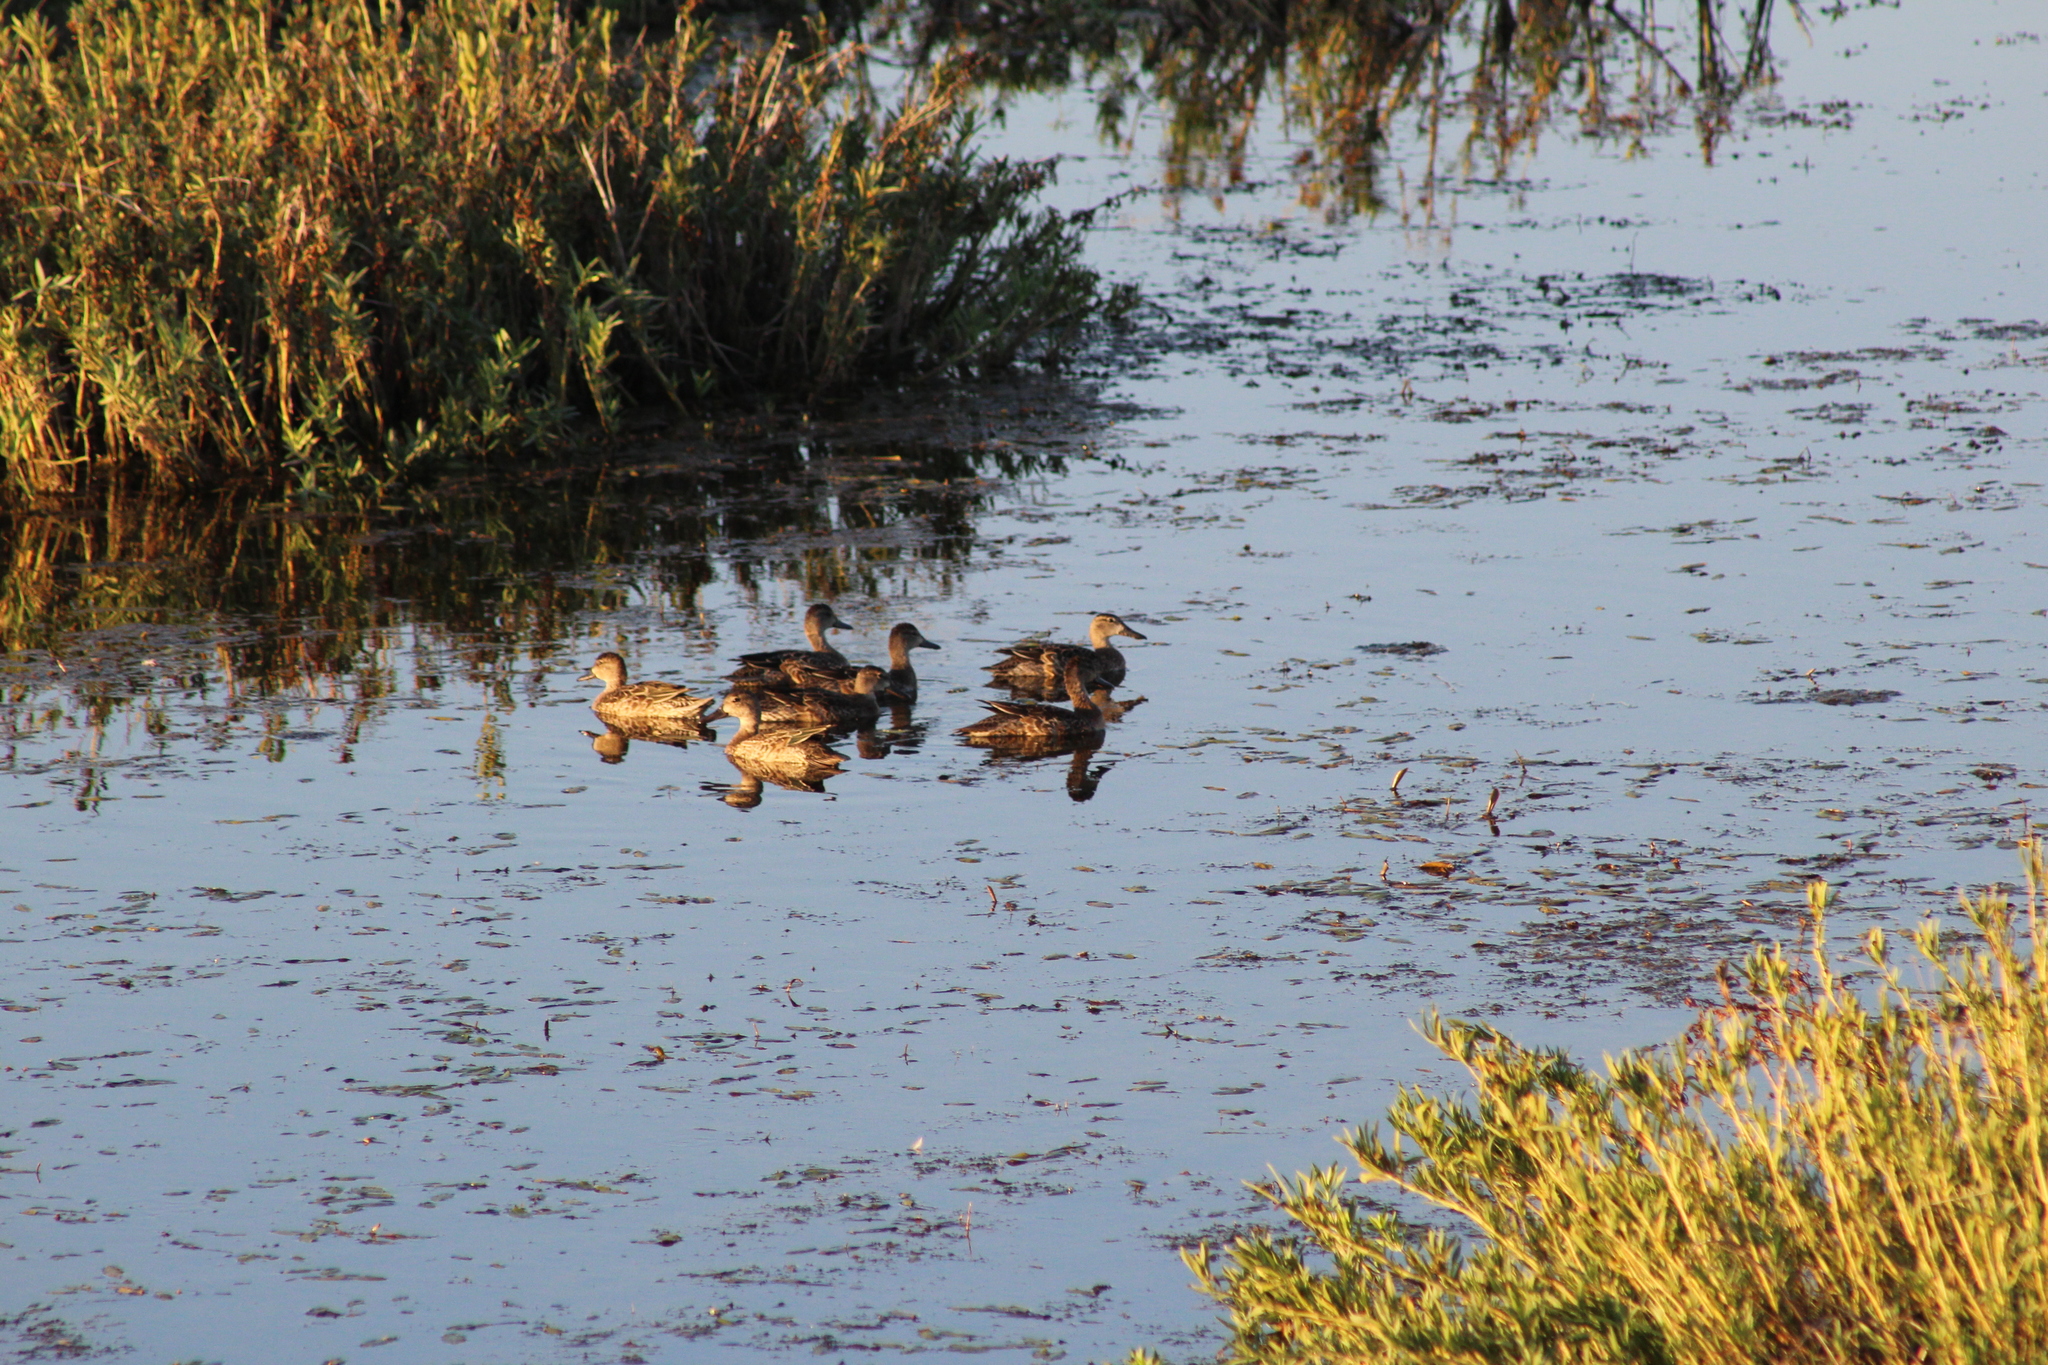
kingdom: Animalia
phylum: Chordata
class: Aves
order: Anseriformes
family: Anatidae
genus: Spatula
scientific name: Spatula discors
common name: Blue-winged teal
